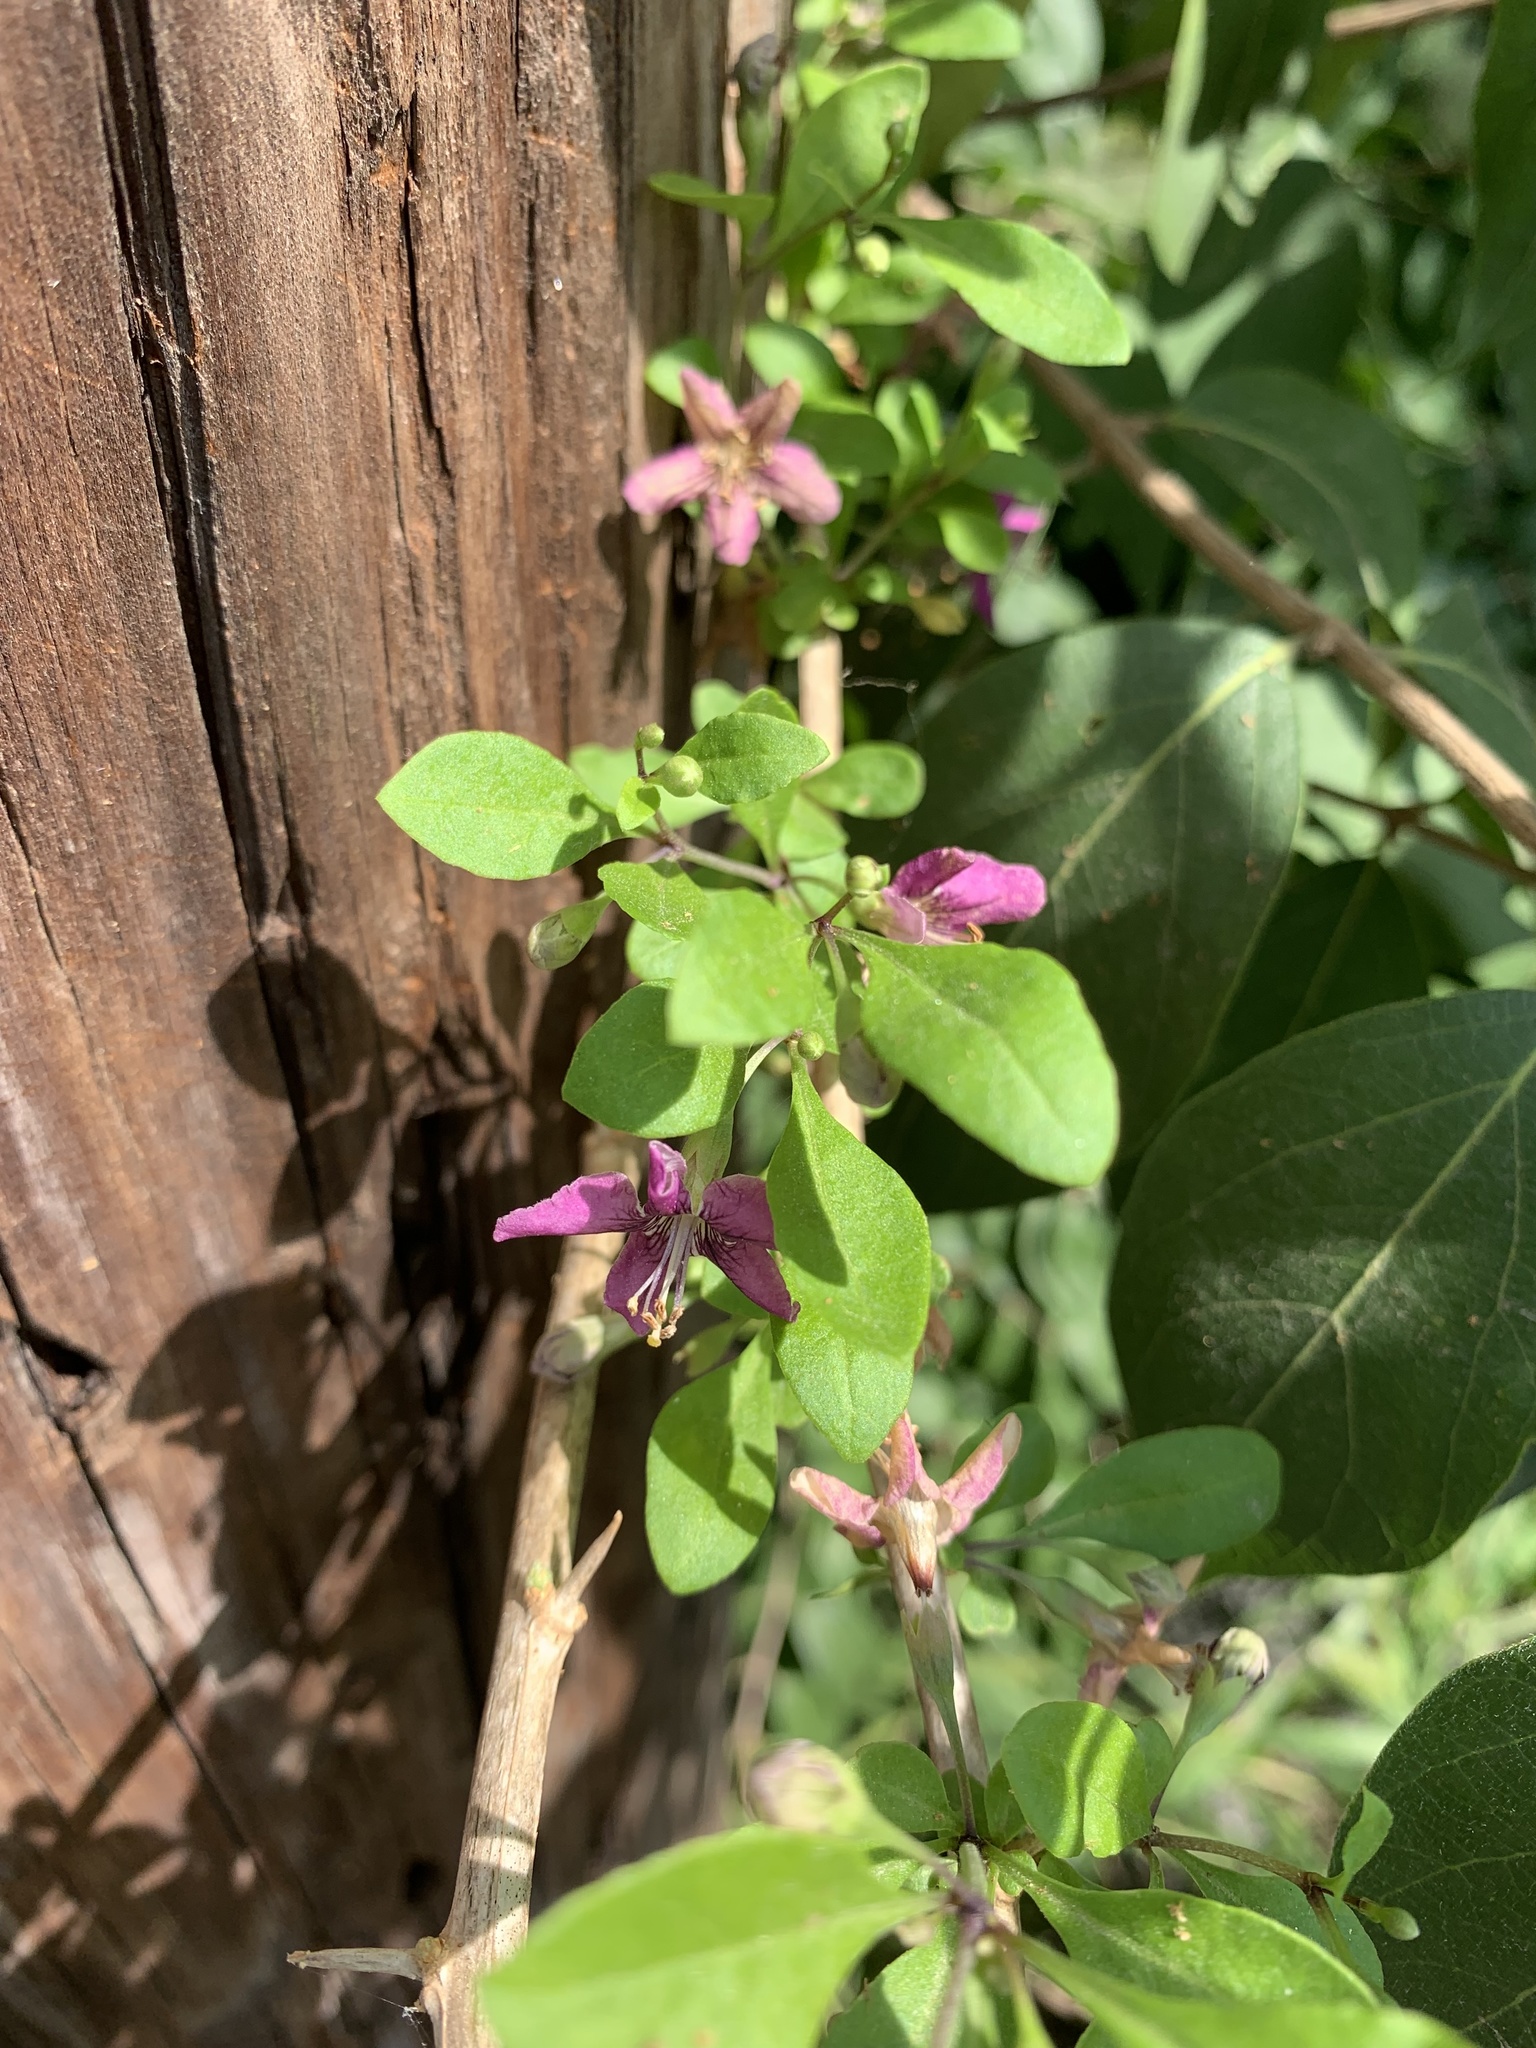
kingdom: Plantae
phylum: Tracheophyta
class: Magnoliopsida
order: Solanales
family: Solanaceae
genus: Lycium
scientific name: Lycium barbarum
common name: Duke of argyll's teaplant
